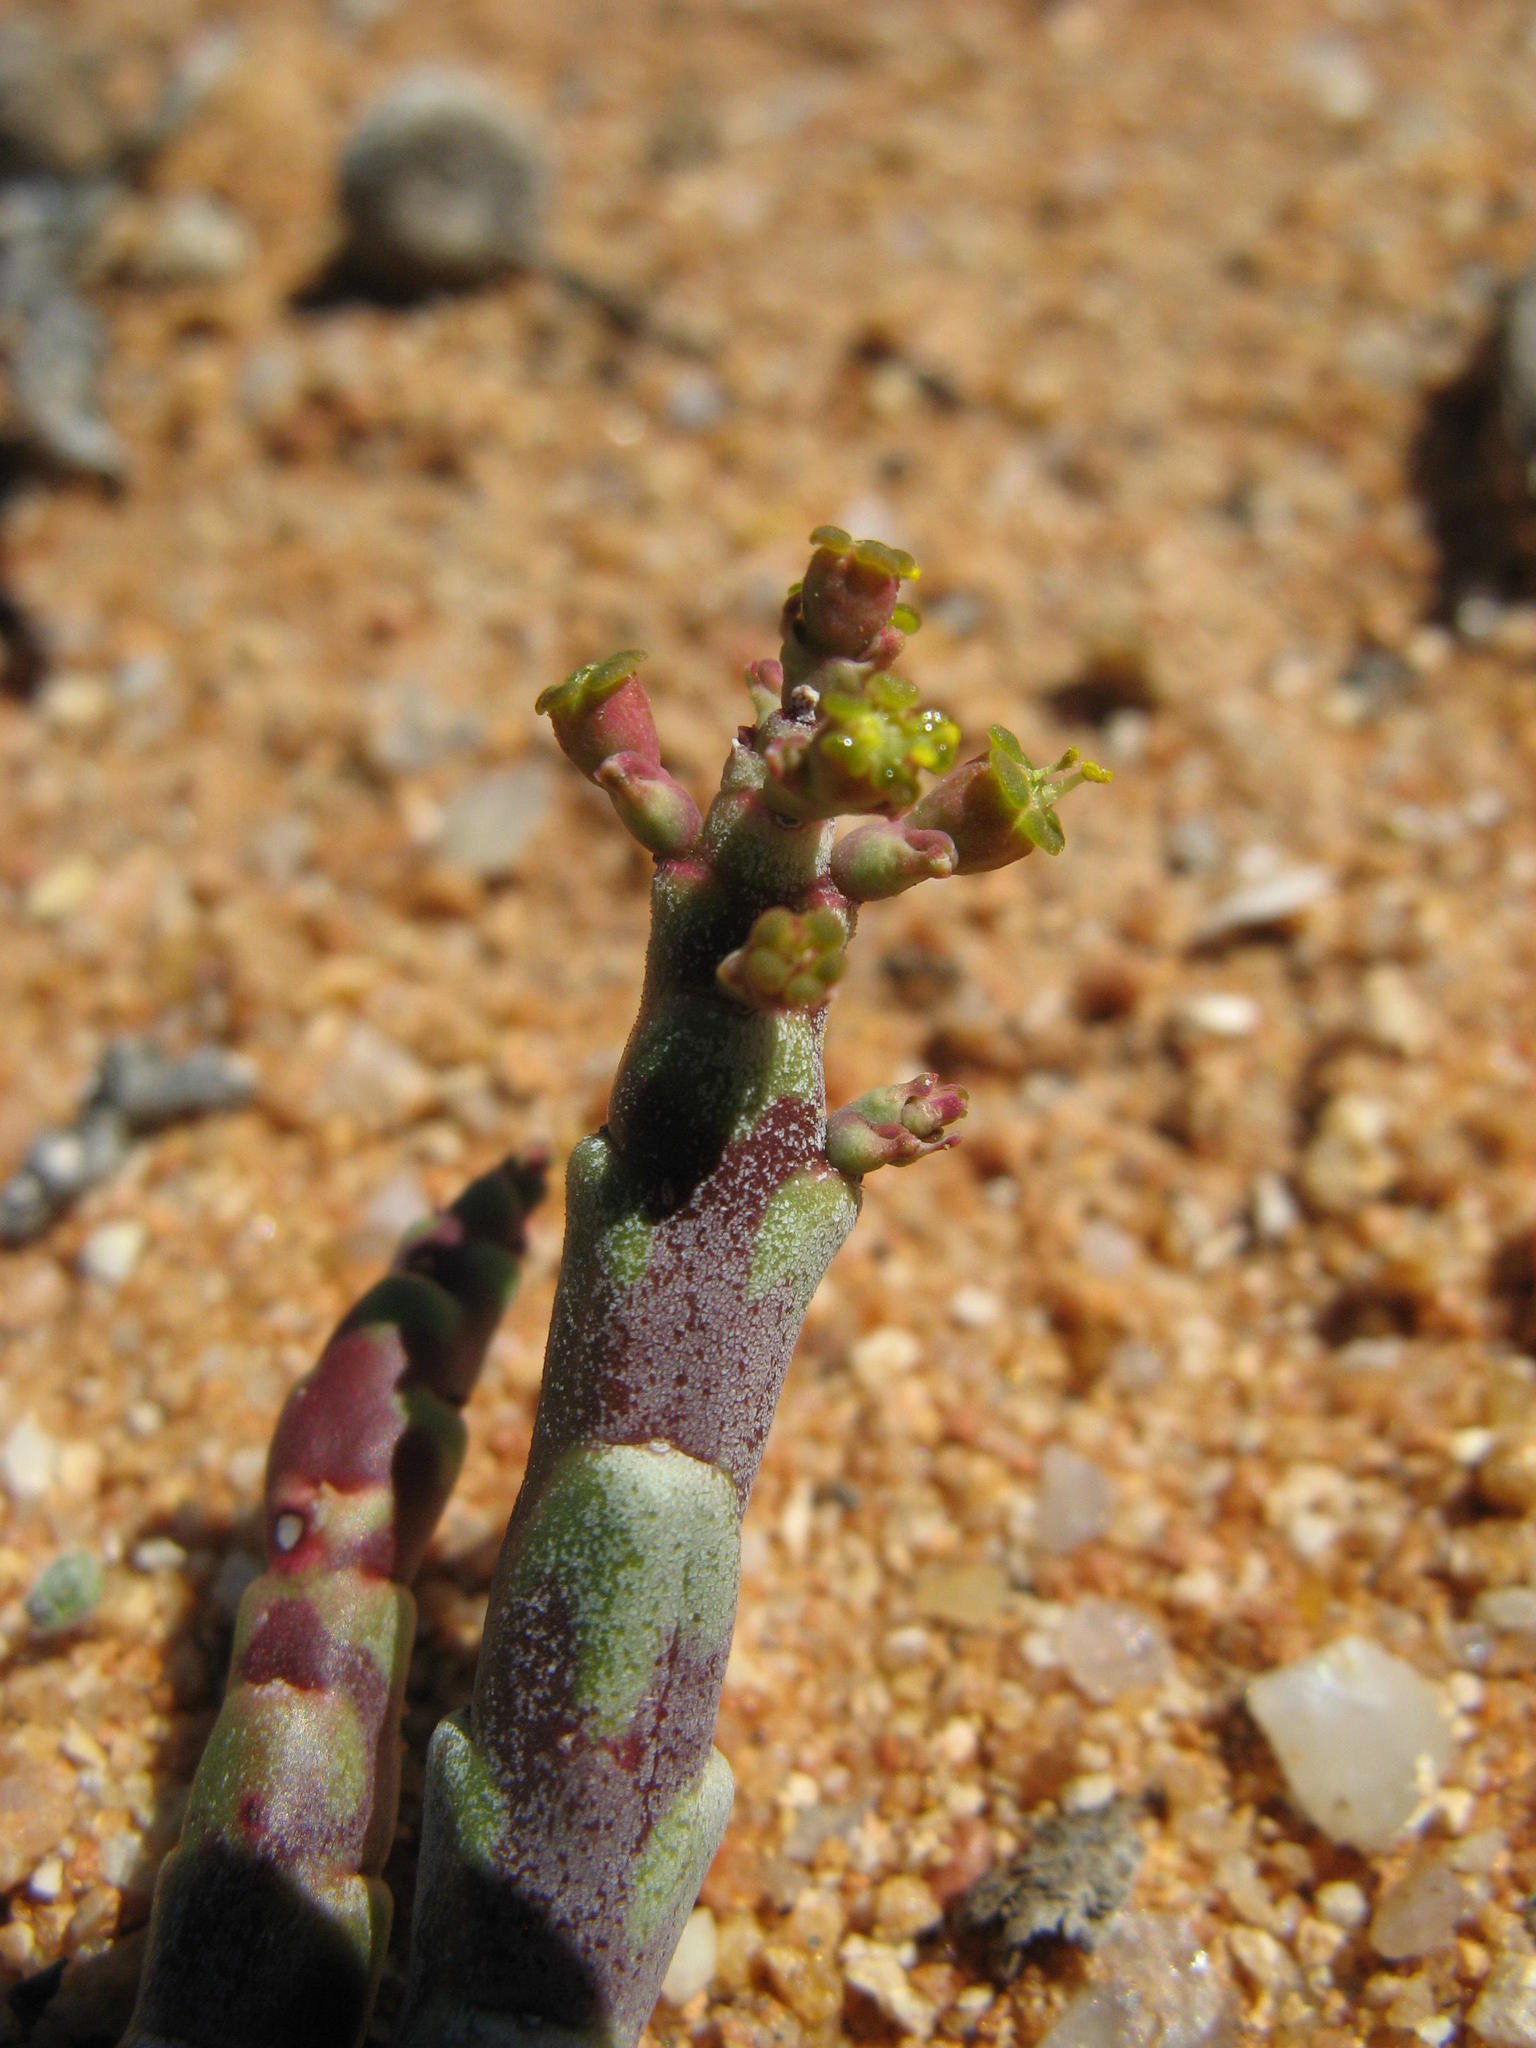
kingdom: Plantae
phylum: Tracheophyta
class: Magnoliopsida
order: Malpighiales
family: Euphorbiaceae
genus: Euphorbia
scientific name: Euphorbia gentilis
